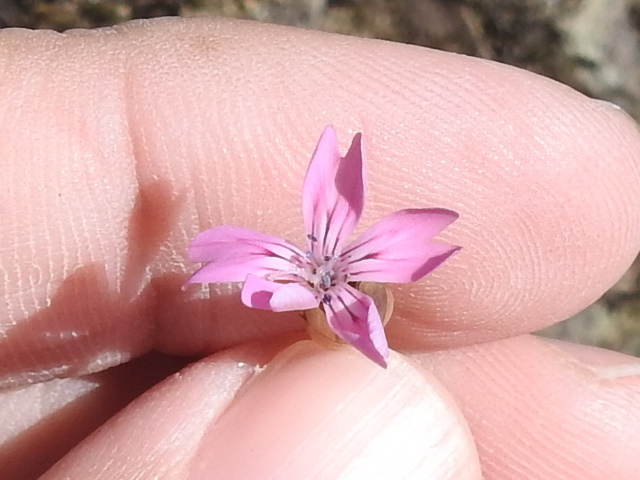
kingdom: Plantae
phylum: Tracheophyta
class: Magnoliopsida
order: Caryophyllales
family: Caryophyllaceae
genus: Petrorhagia
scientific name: Petrorhagia dubia
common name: Hairypink
